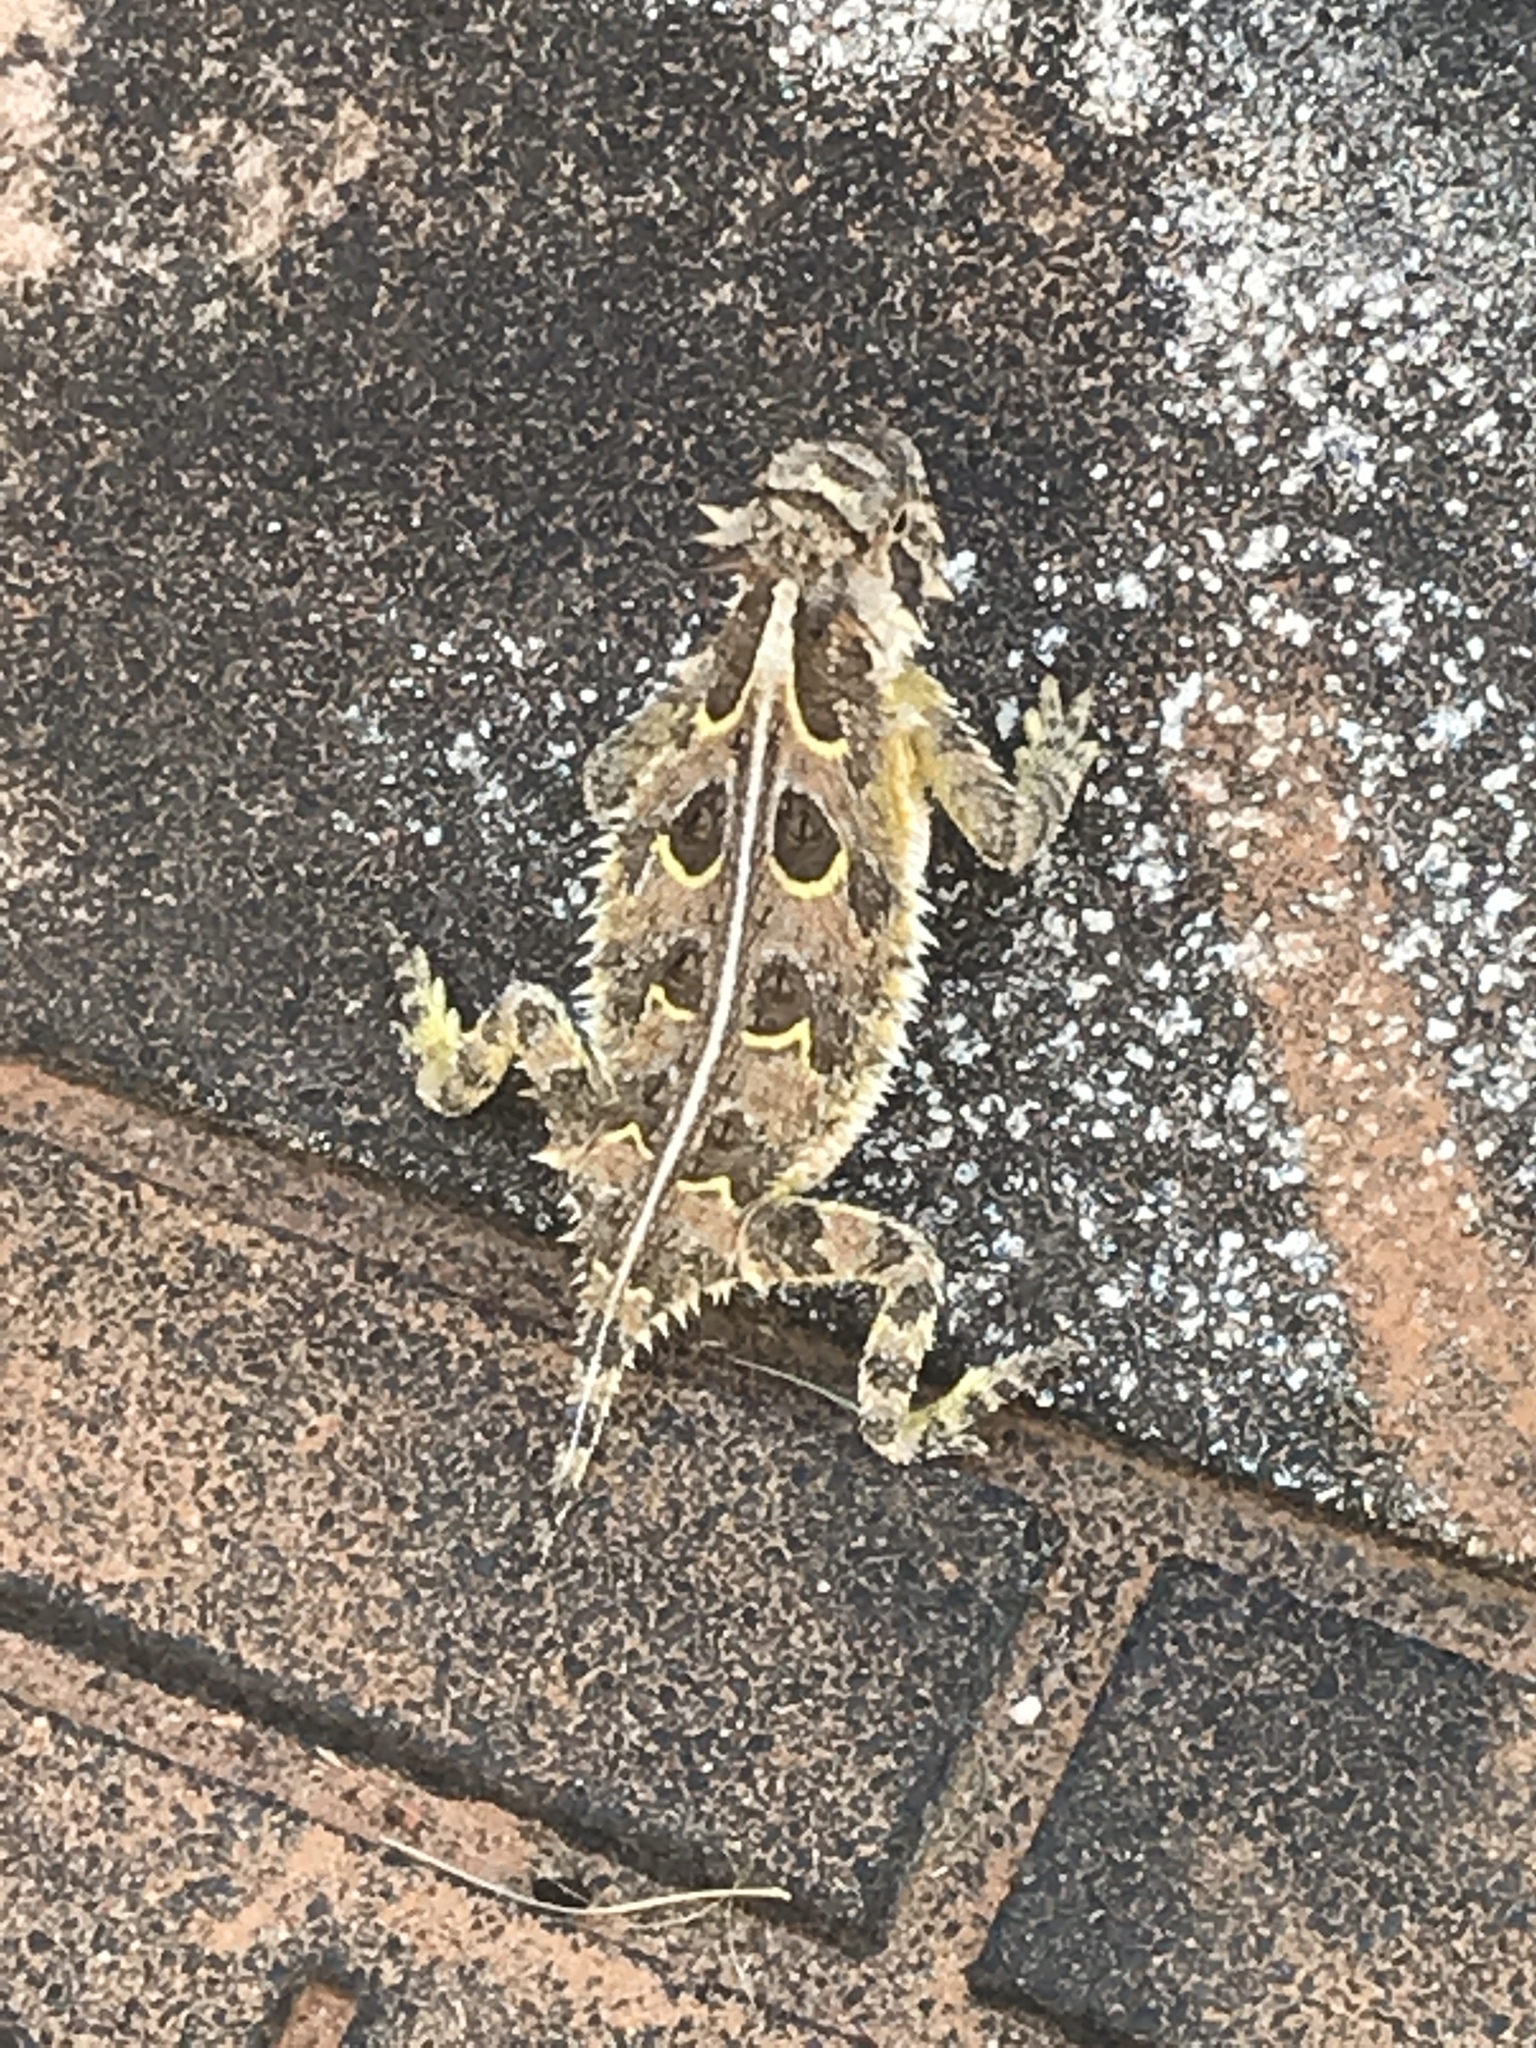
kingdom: Animalia
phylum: Chordata
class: Squamata
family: Phrynosomatidae
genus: Phrynosoma
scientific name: Phrynosoma cornutum
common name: Texas horned lizard
